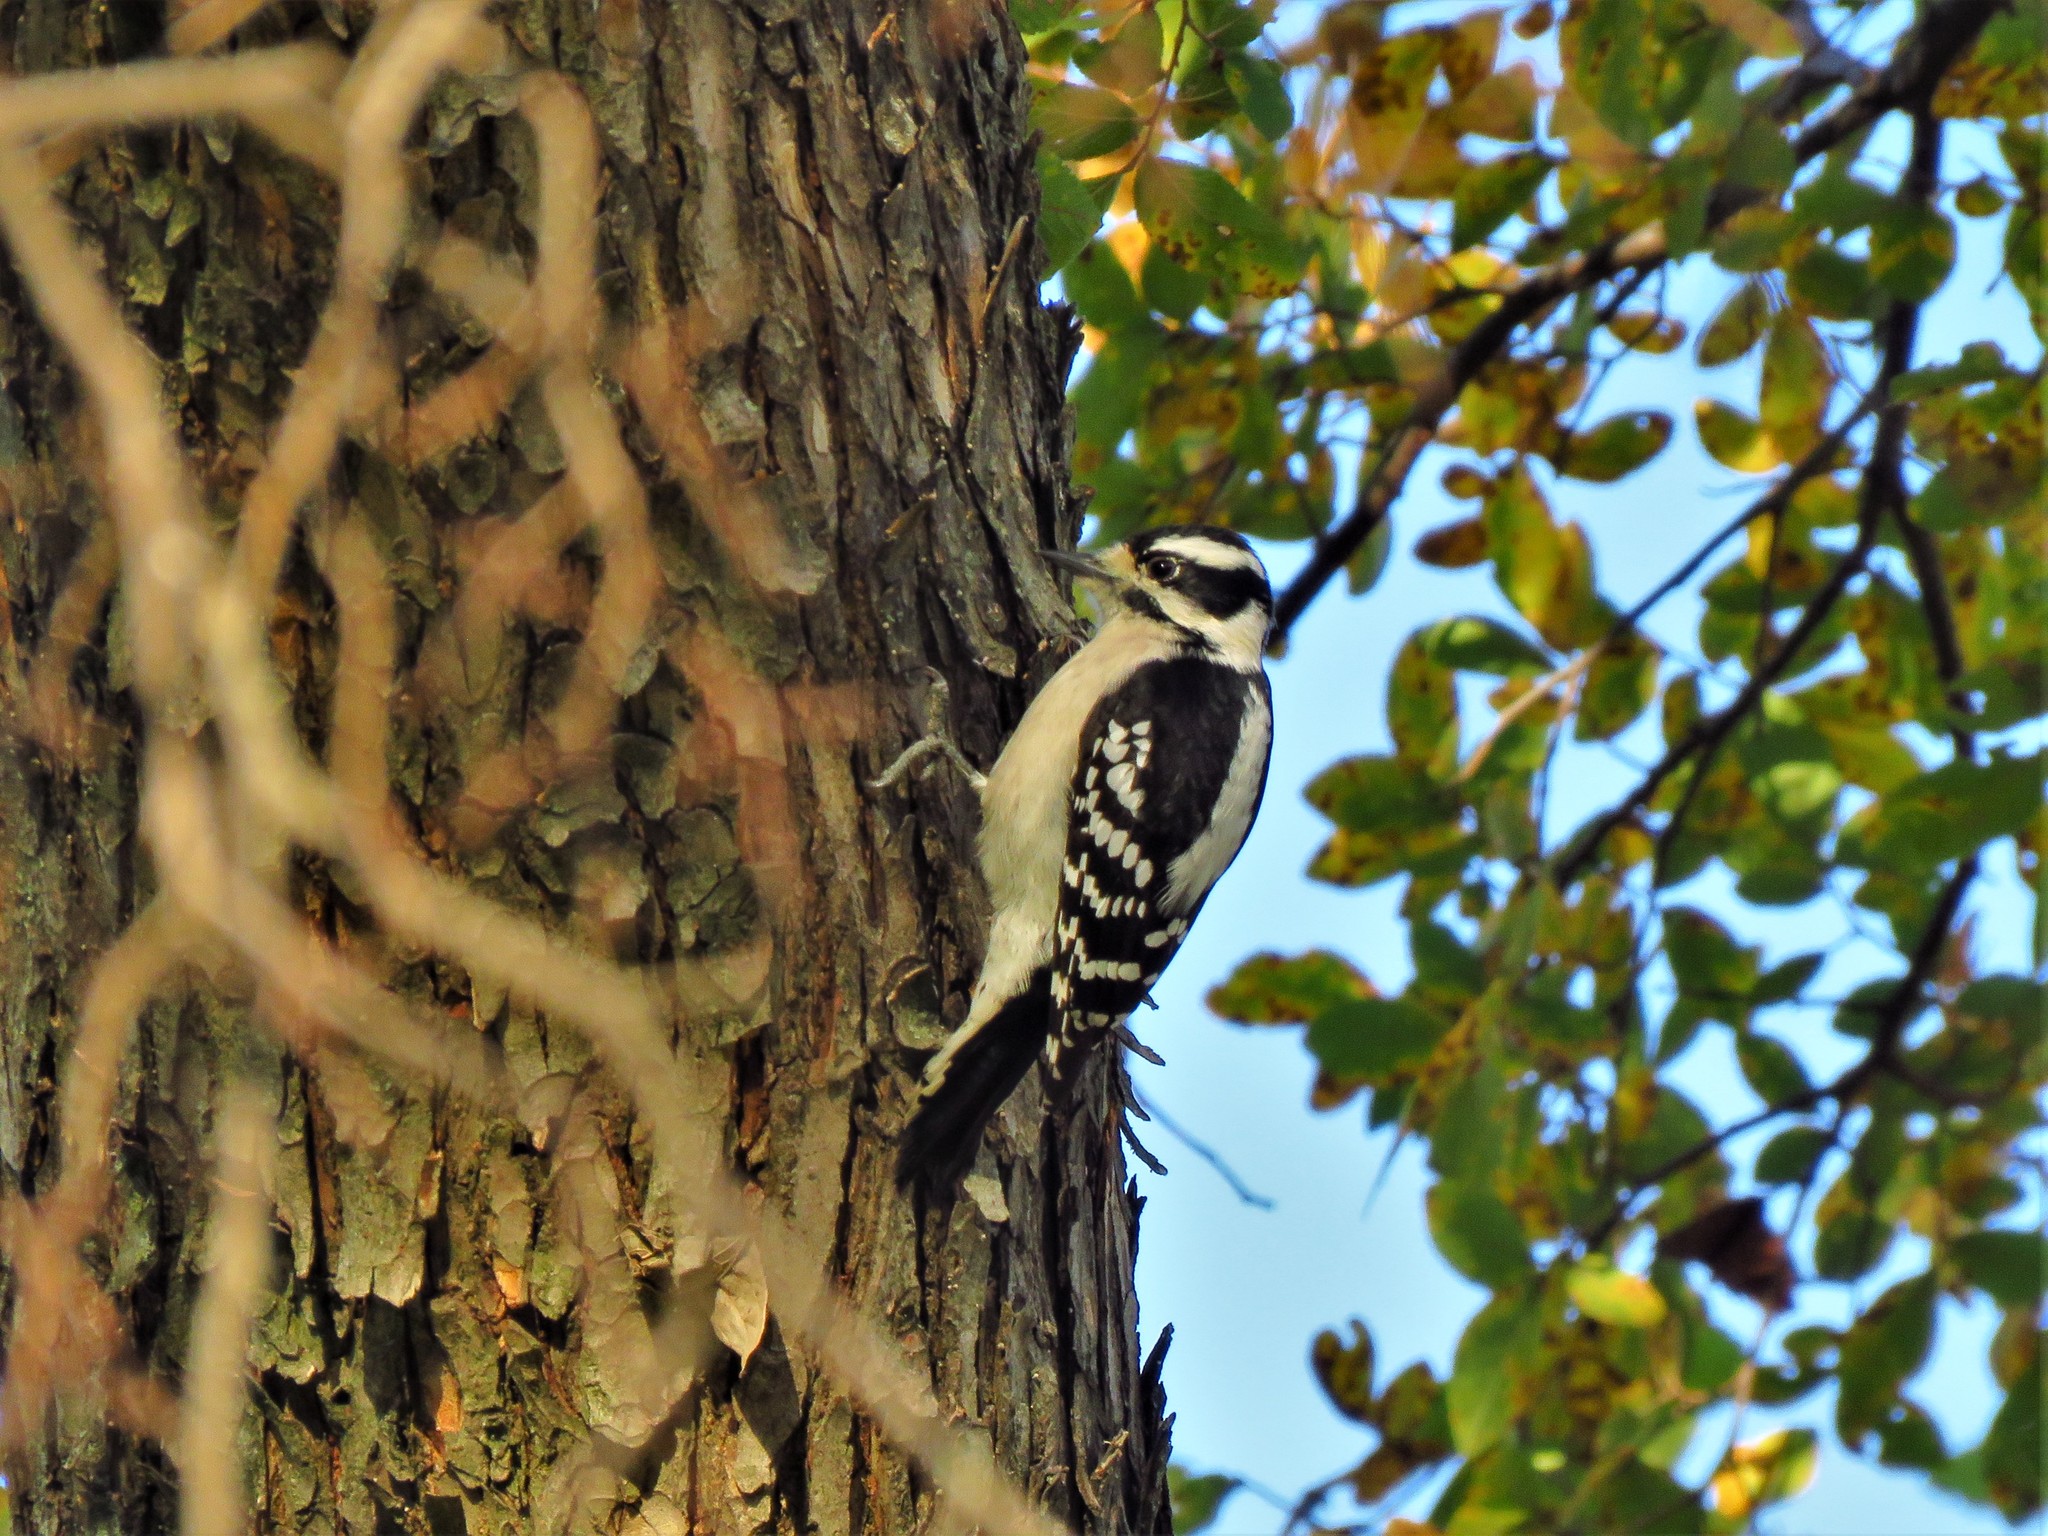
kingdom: Animalia
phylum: Chordata
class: Aves
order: Piciformes
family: Picidae
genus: Dryobates
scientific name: Dryobates pubescens
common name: Downy woodpecker
